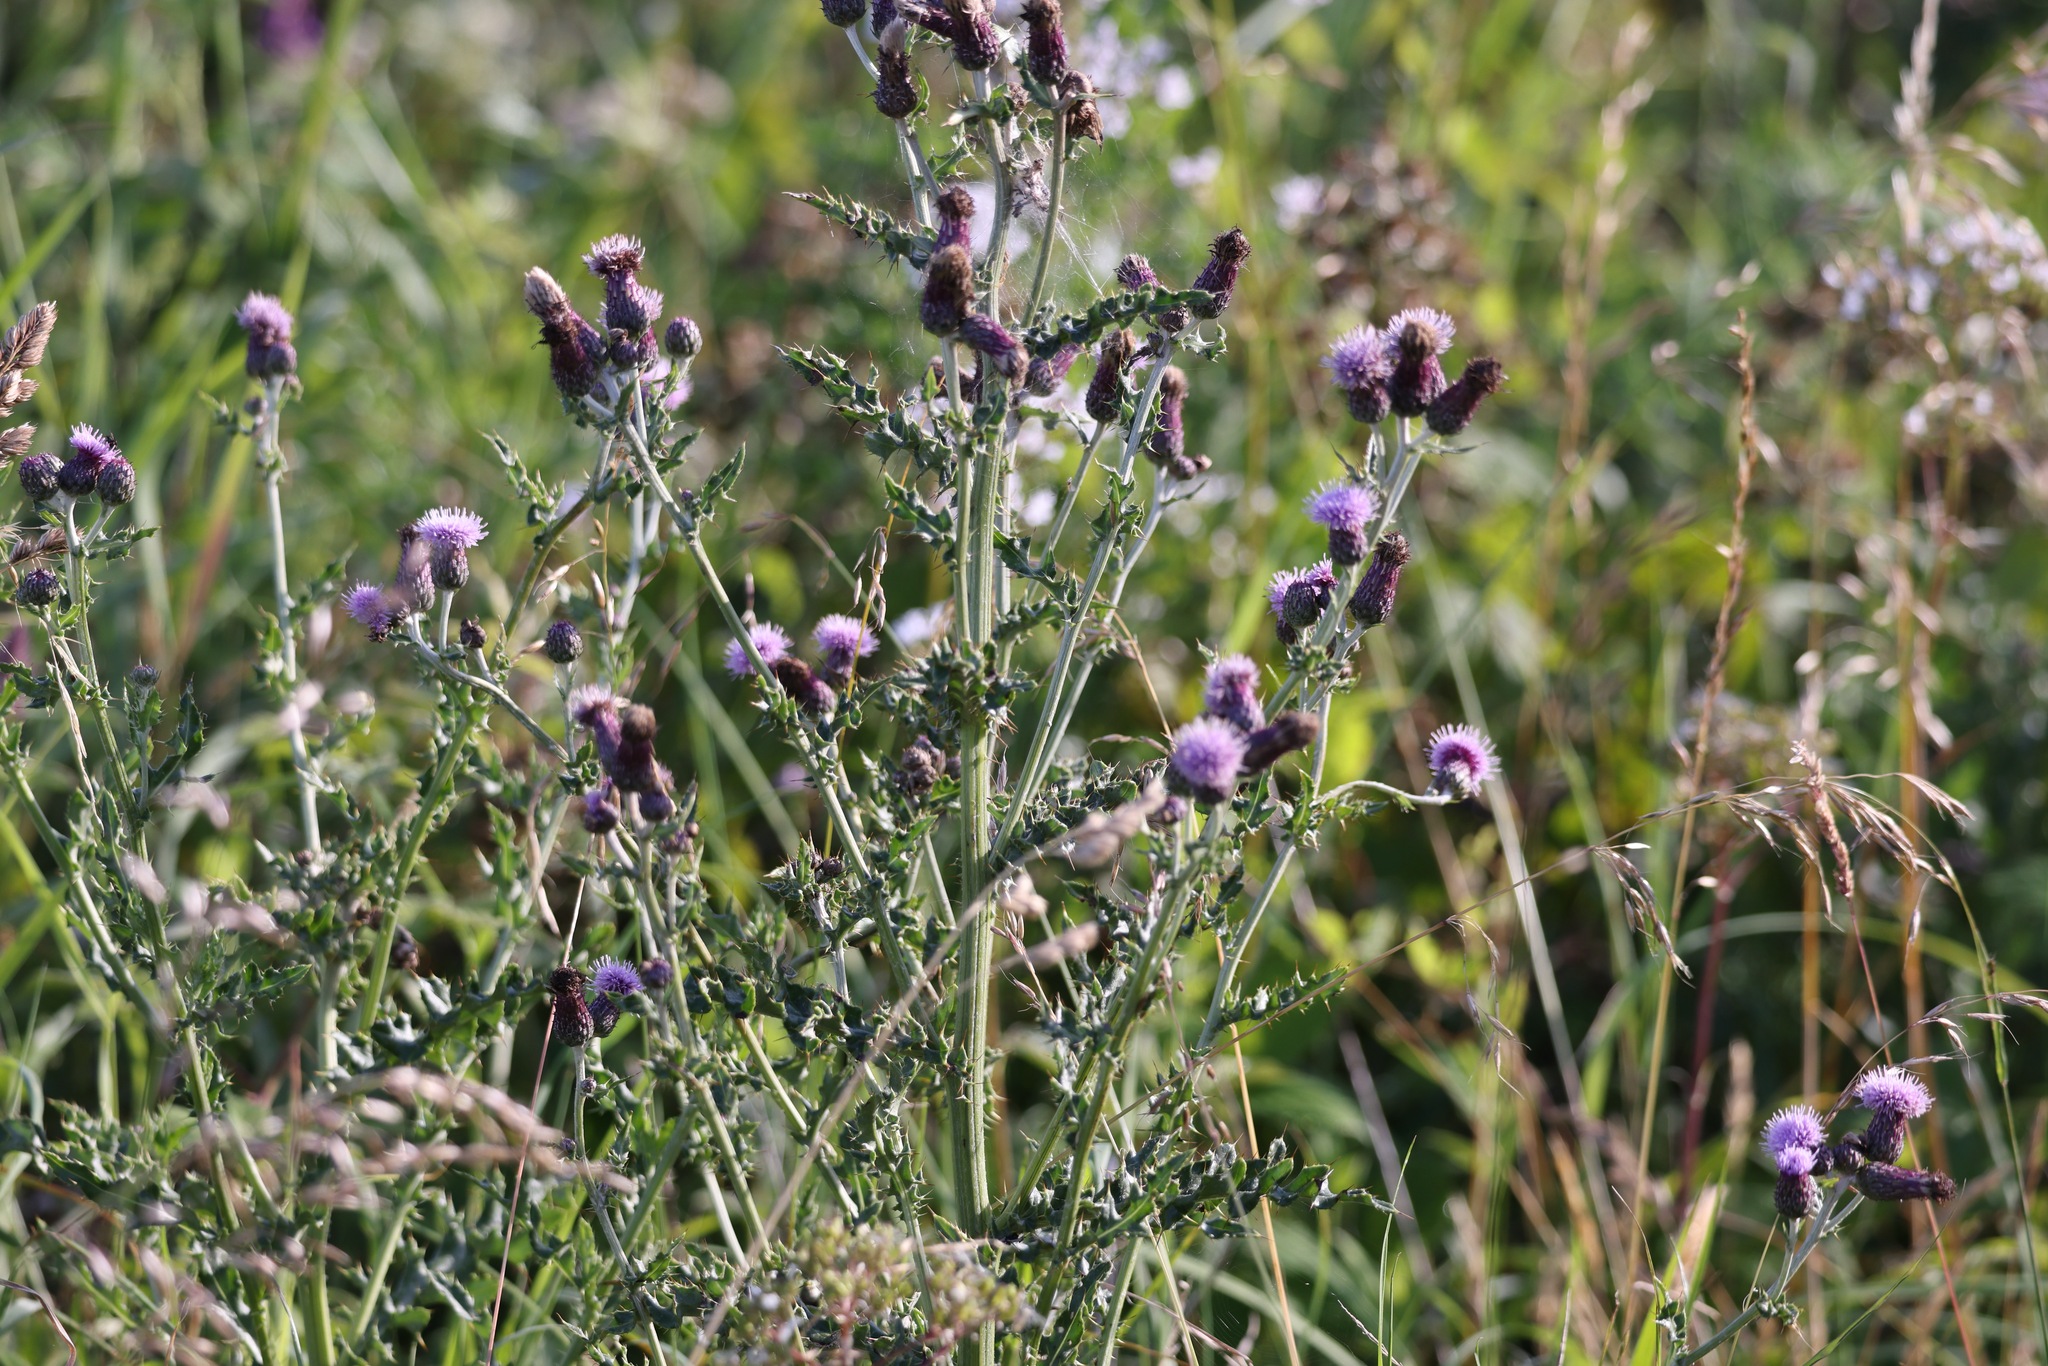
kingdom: Plantae
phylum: Tracheophyta
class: Magnoliopsida
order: Asterales
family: Asteraceae
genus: Cirsium
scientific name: Cirsium arvense
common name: Creeping thistle
